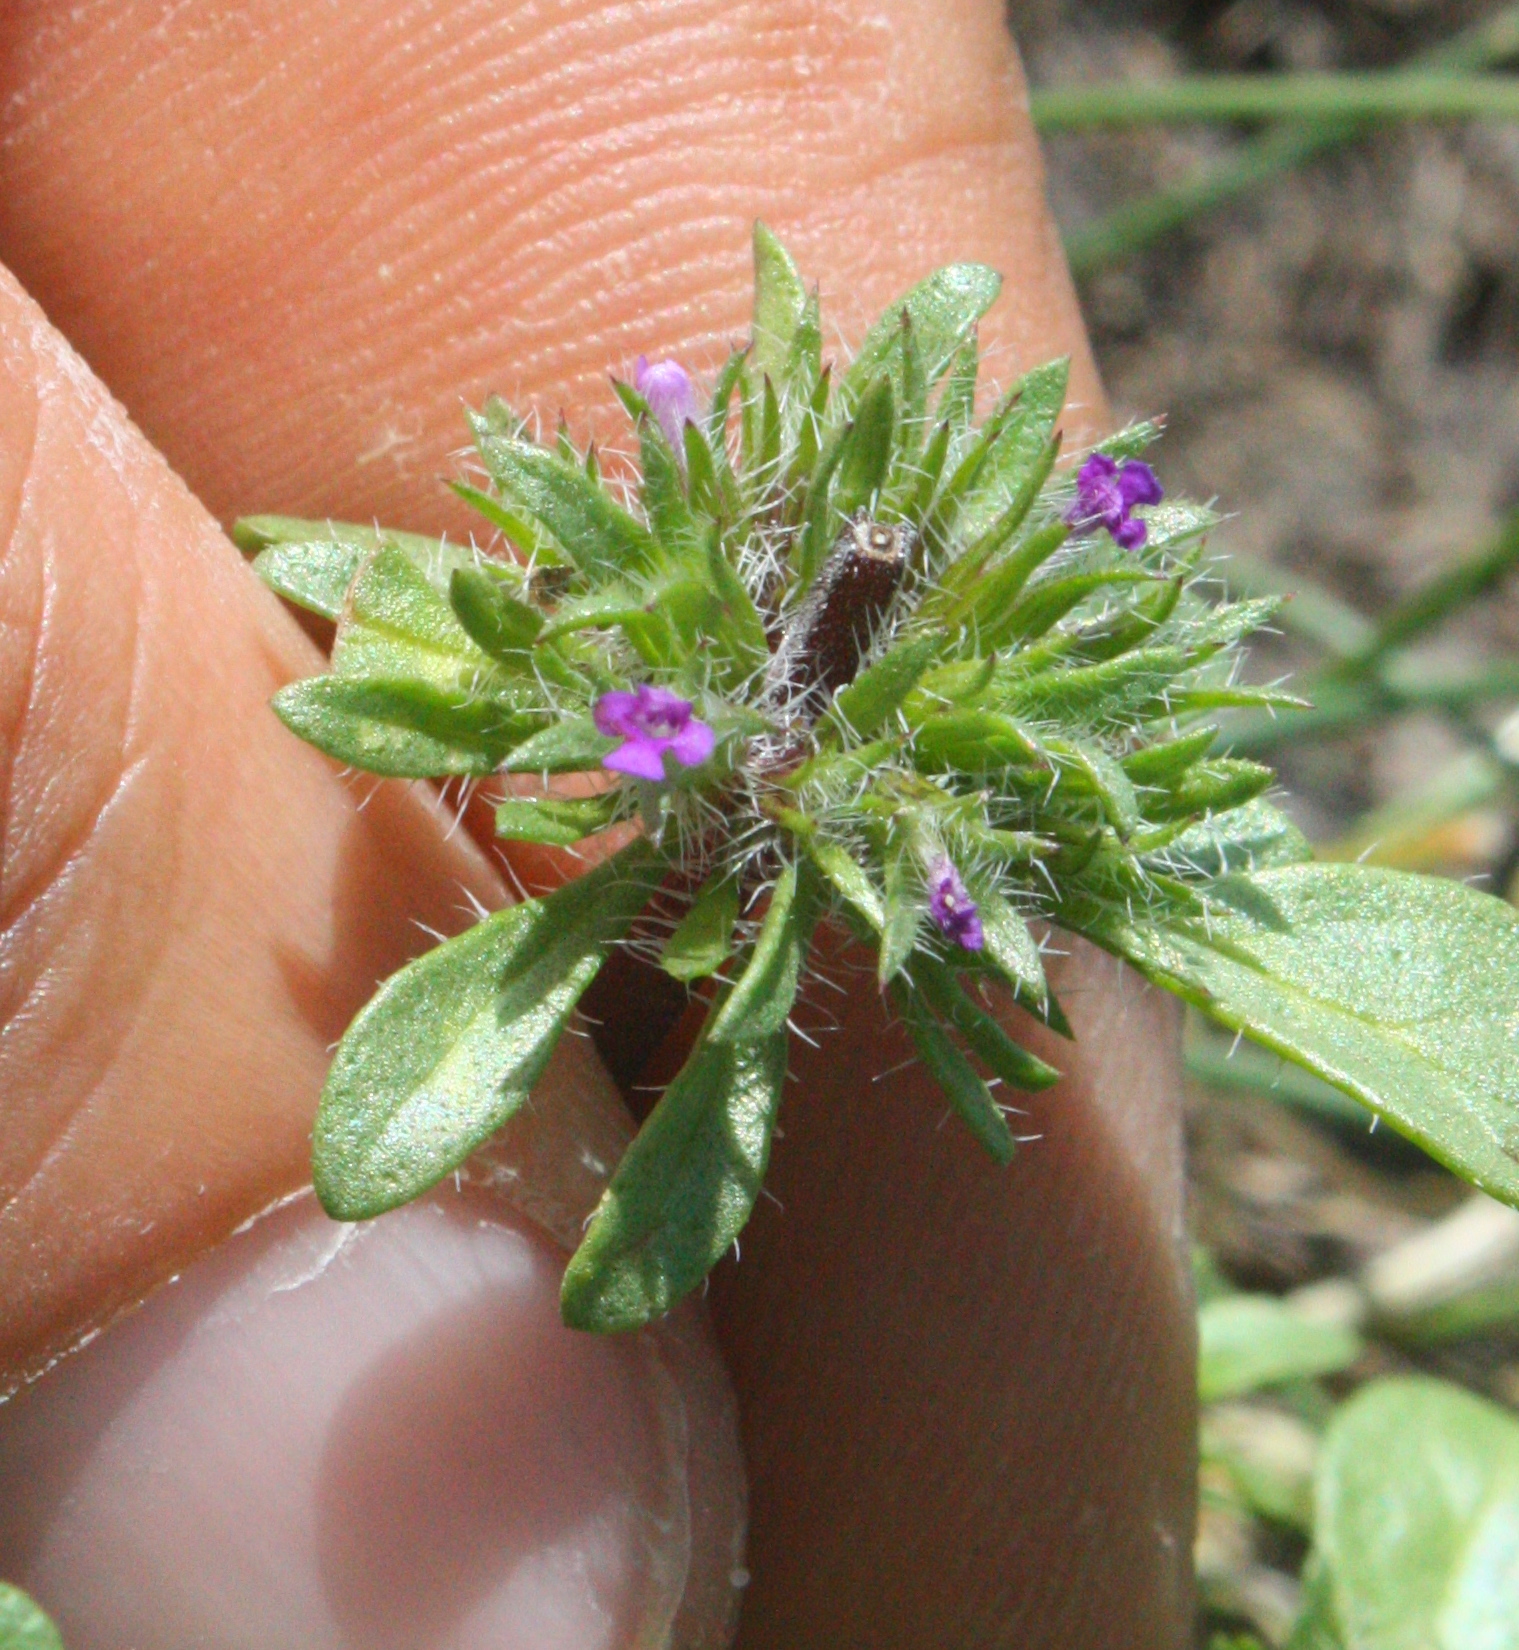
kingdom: Plantae
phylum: Tracheophyta
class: Magnoliopsida
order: Lamiales
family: Lamiaceae
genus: Pogogyne
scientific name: Pogogyne zizyphoroides
